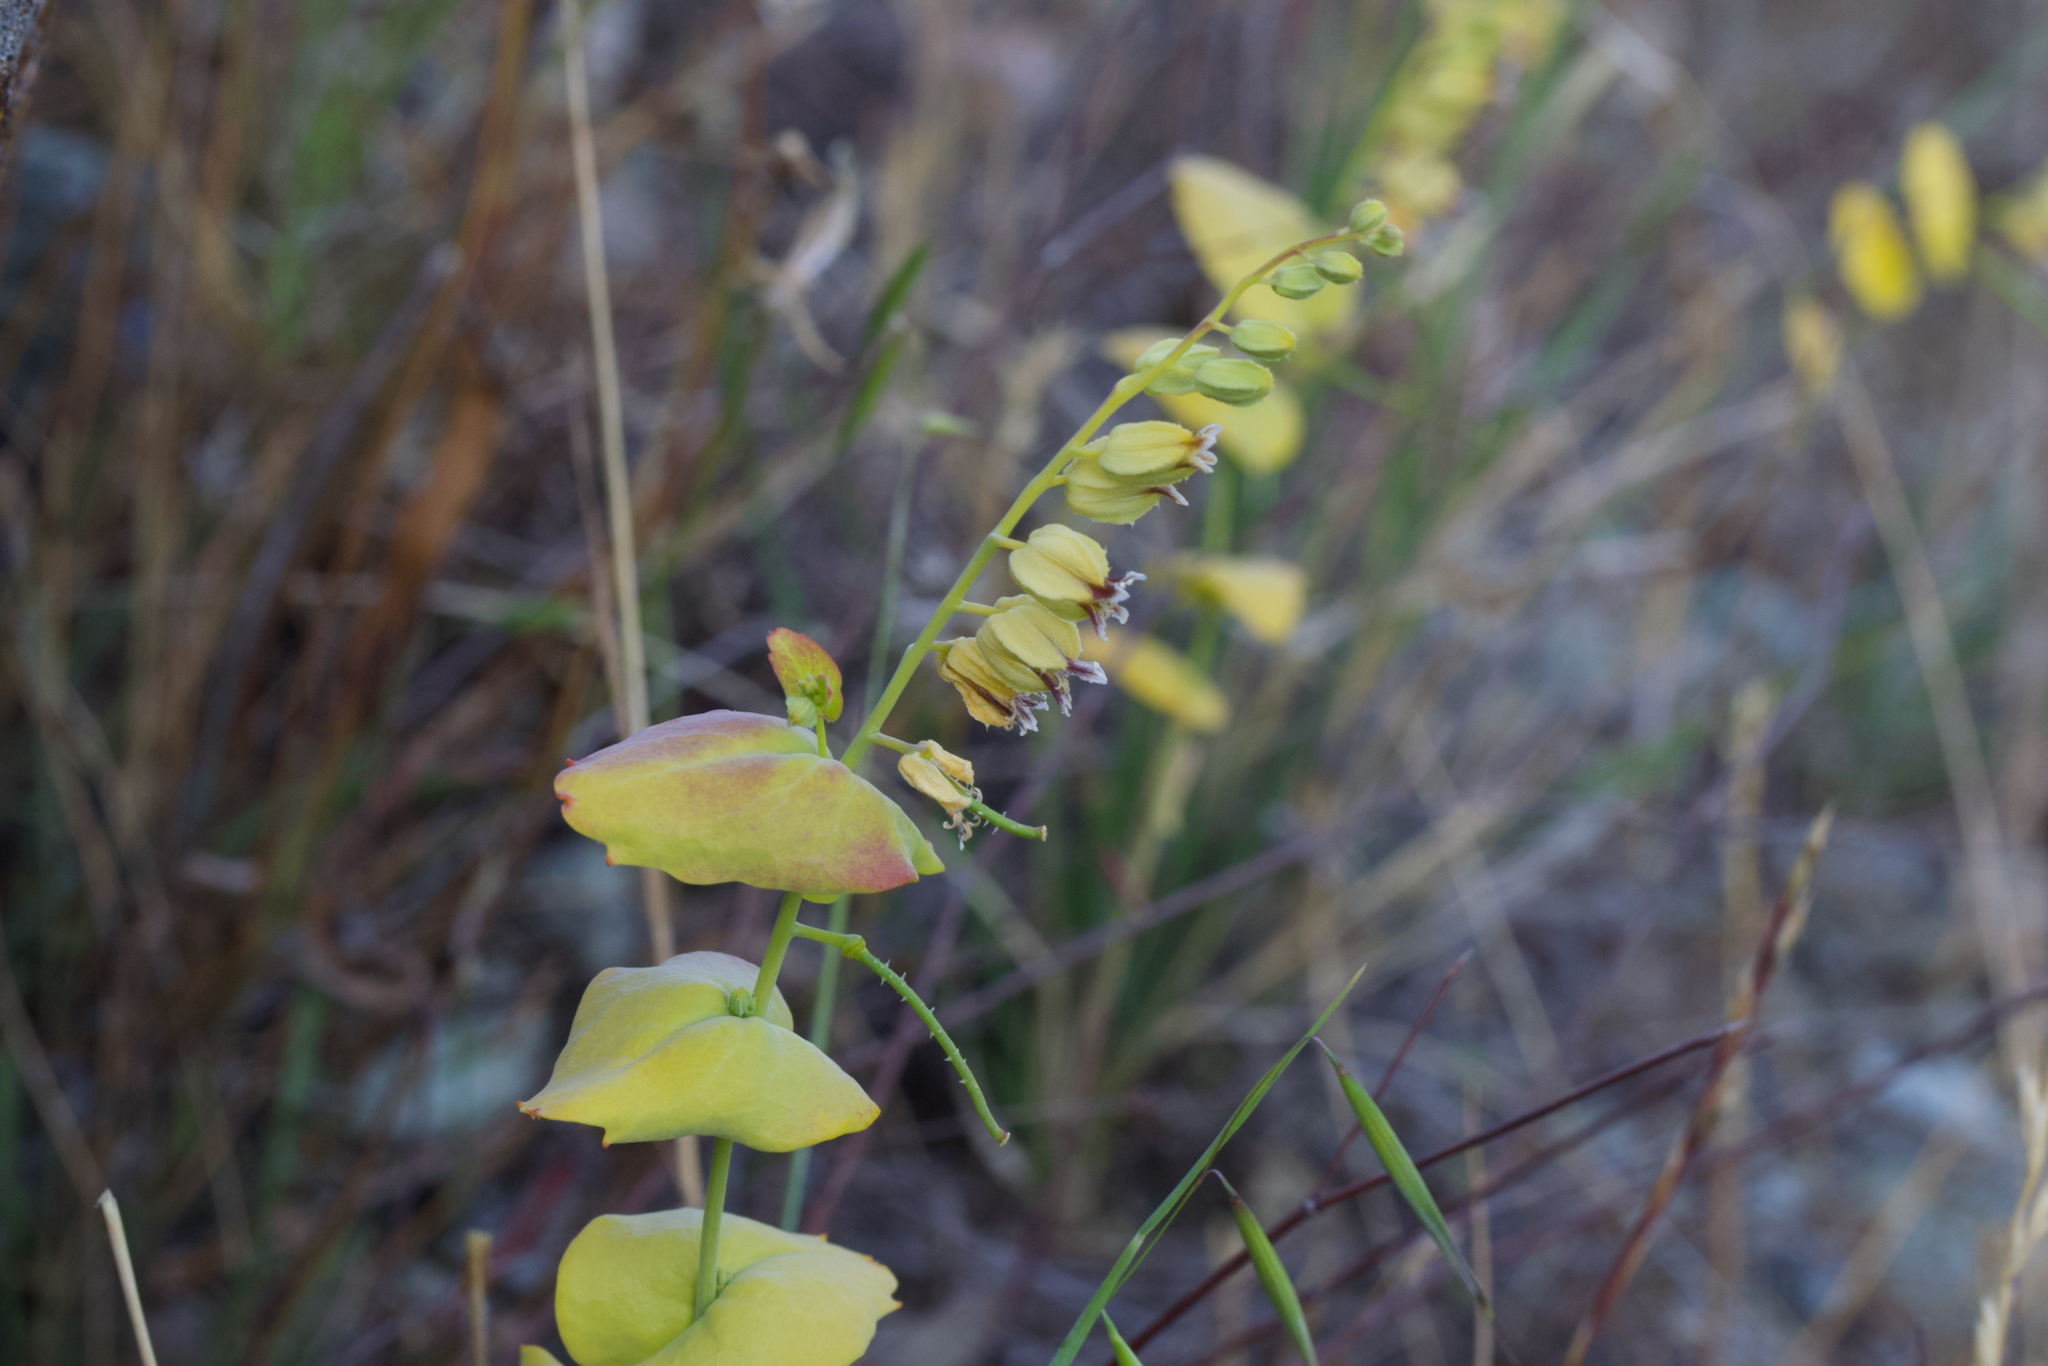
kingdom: Plantae
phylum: Tracheophyta
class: Magnoliopsida
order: Brassicales
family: Brassicaceae
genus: Streptanthus
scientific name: Streptanthus anomalus
